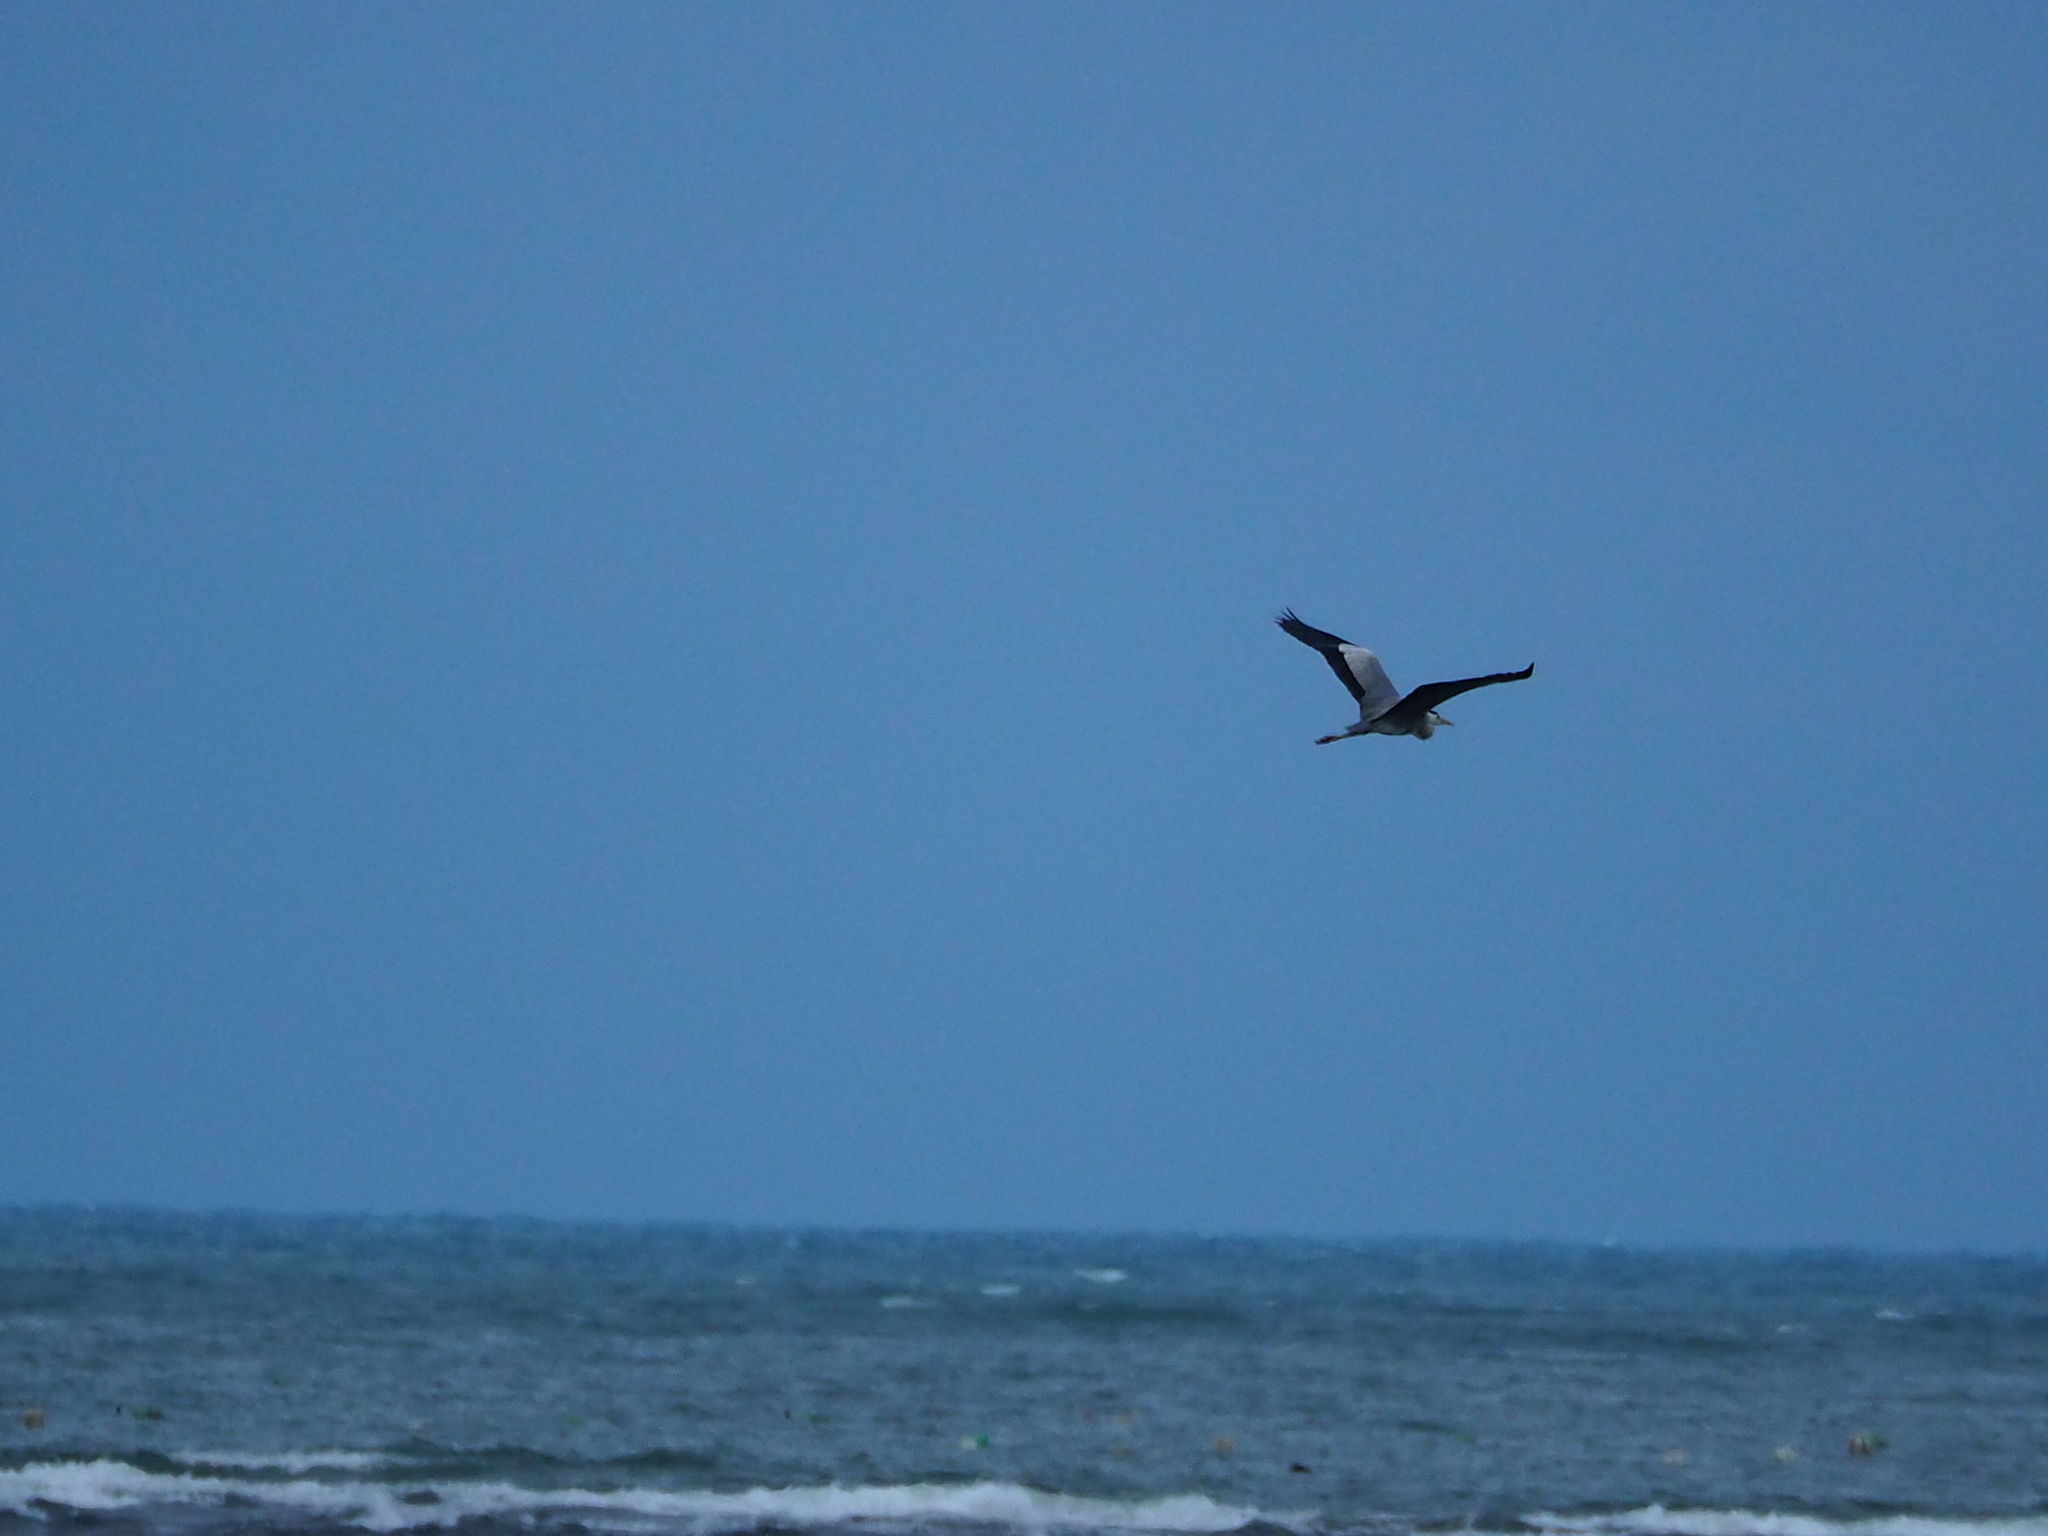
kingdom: Animalia
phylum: Chordata
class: Aves
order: Pelecaniformes
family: Ardeidae
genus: Ardea
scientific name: Ardea cinerea
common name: Grey heron
